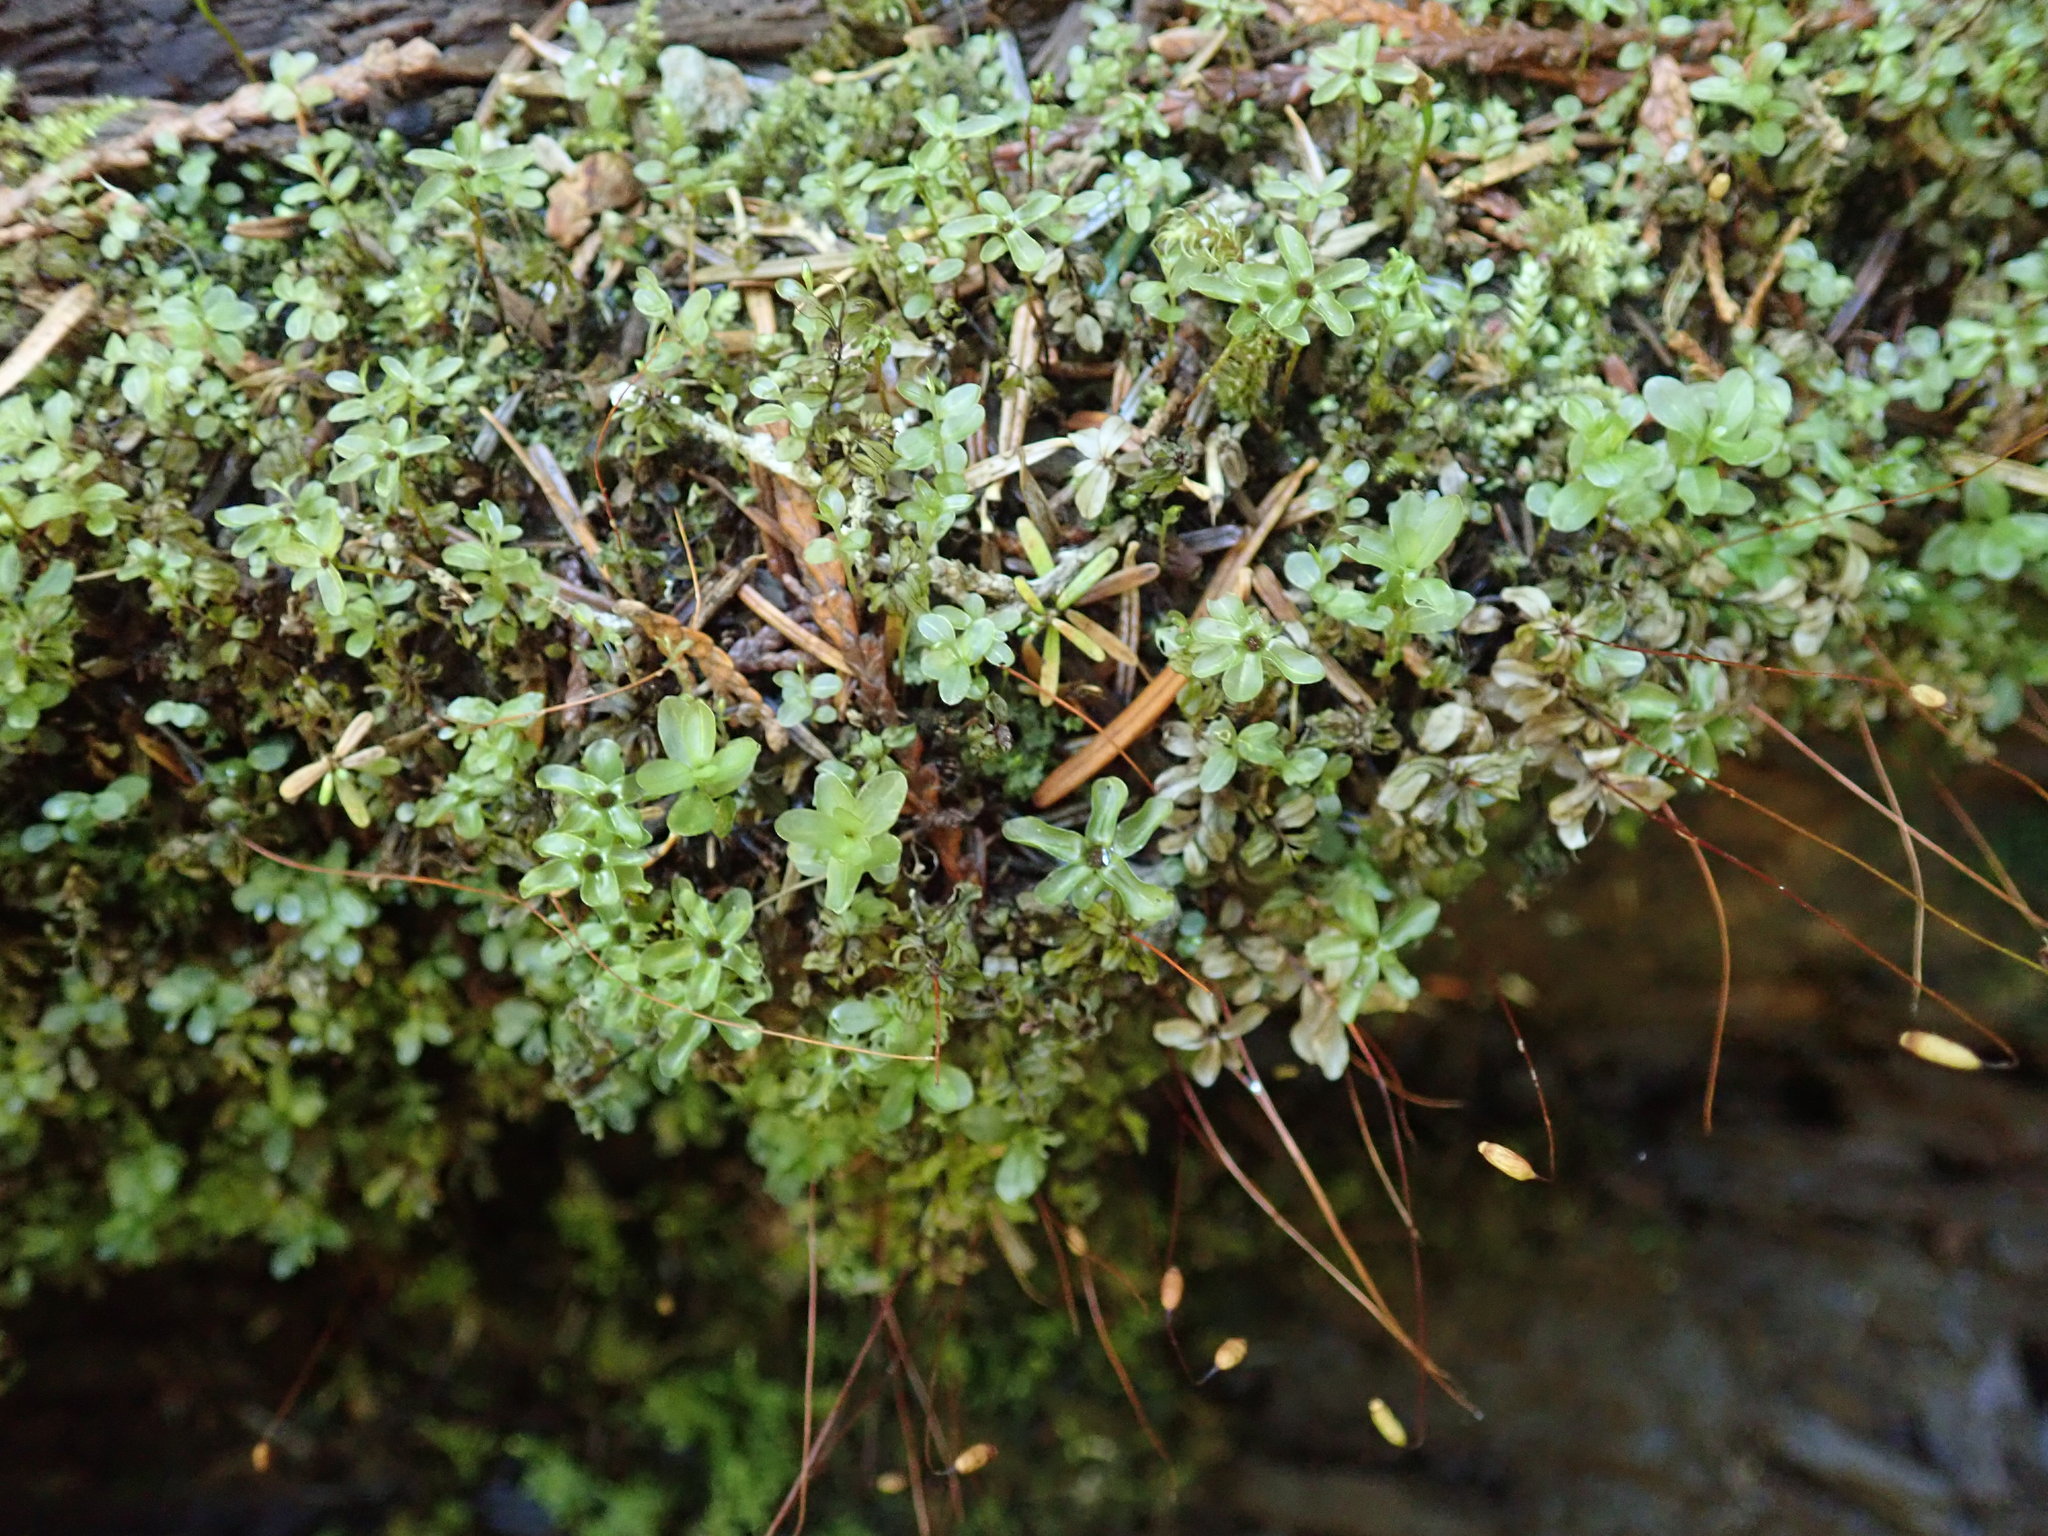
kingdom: Plantae
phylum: Bryophyta
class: Bryopsida
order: Bryales
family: Mniaceae
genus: Rhizomnium
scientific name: Rhizomnium glabrescens
